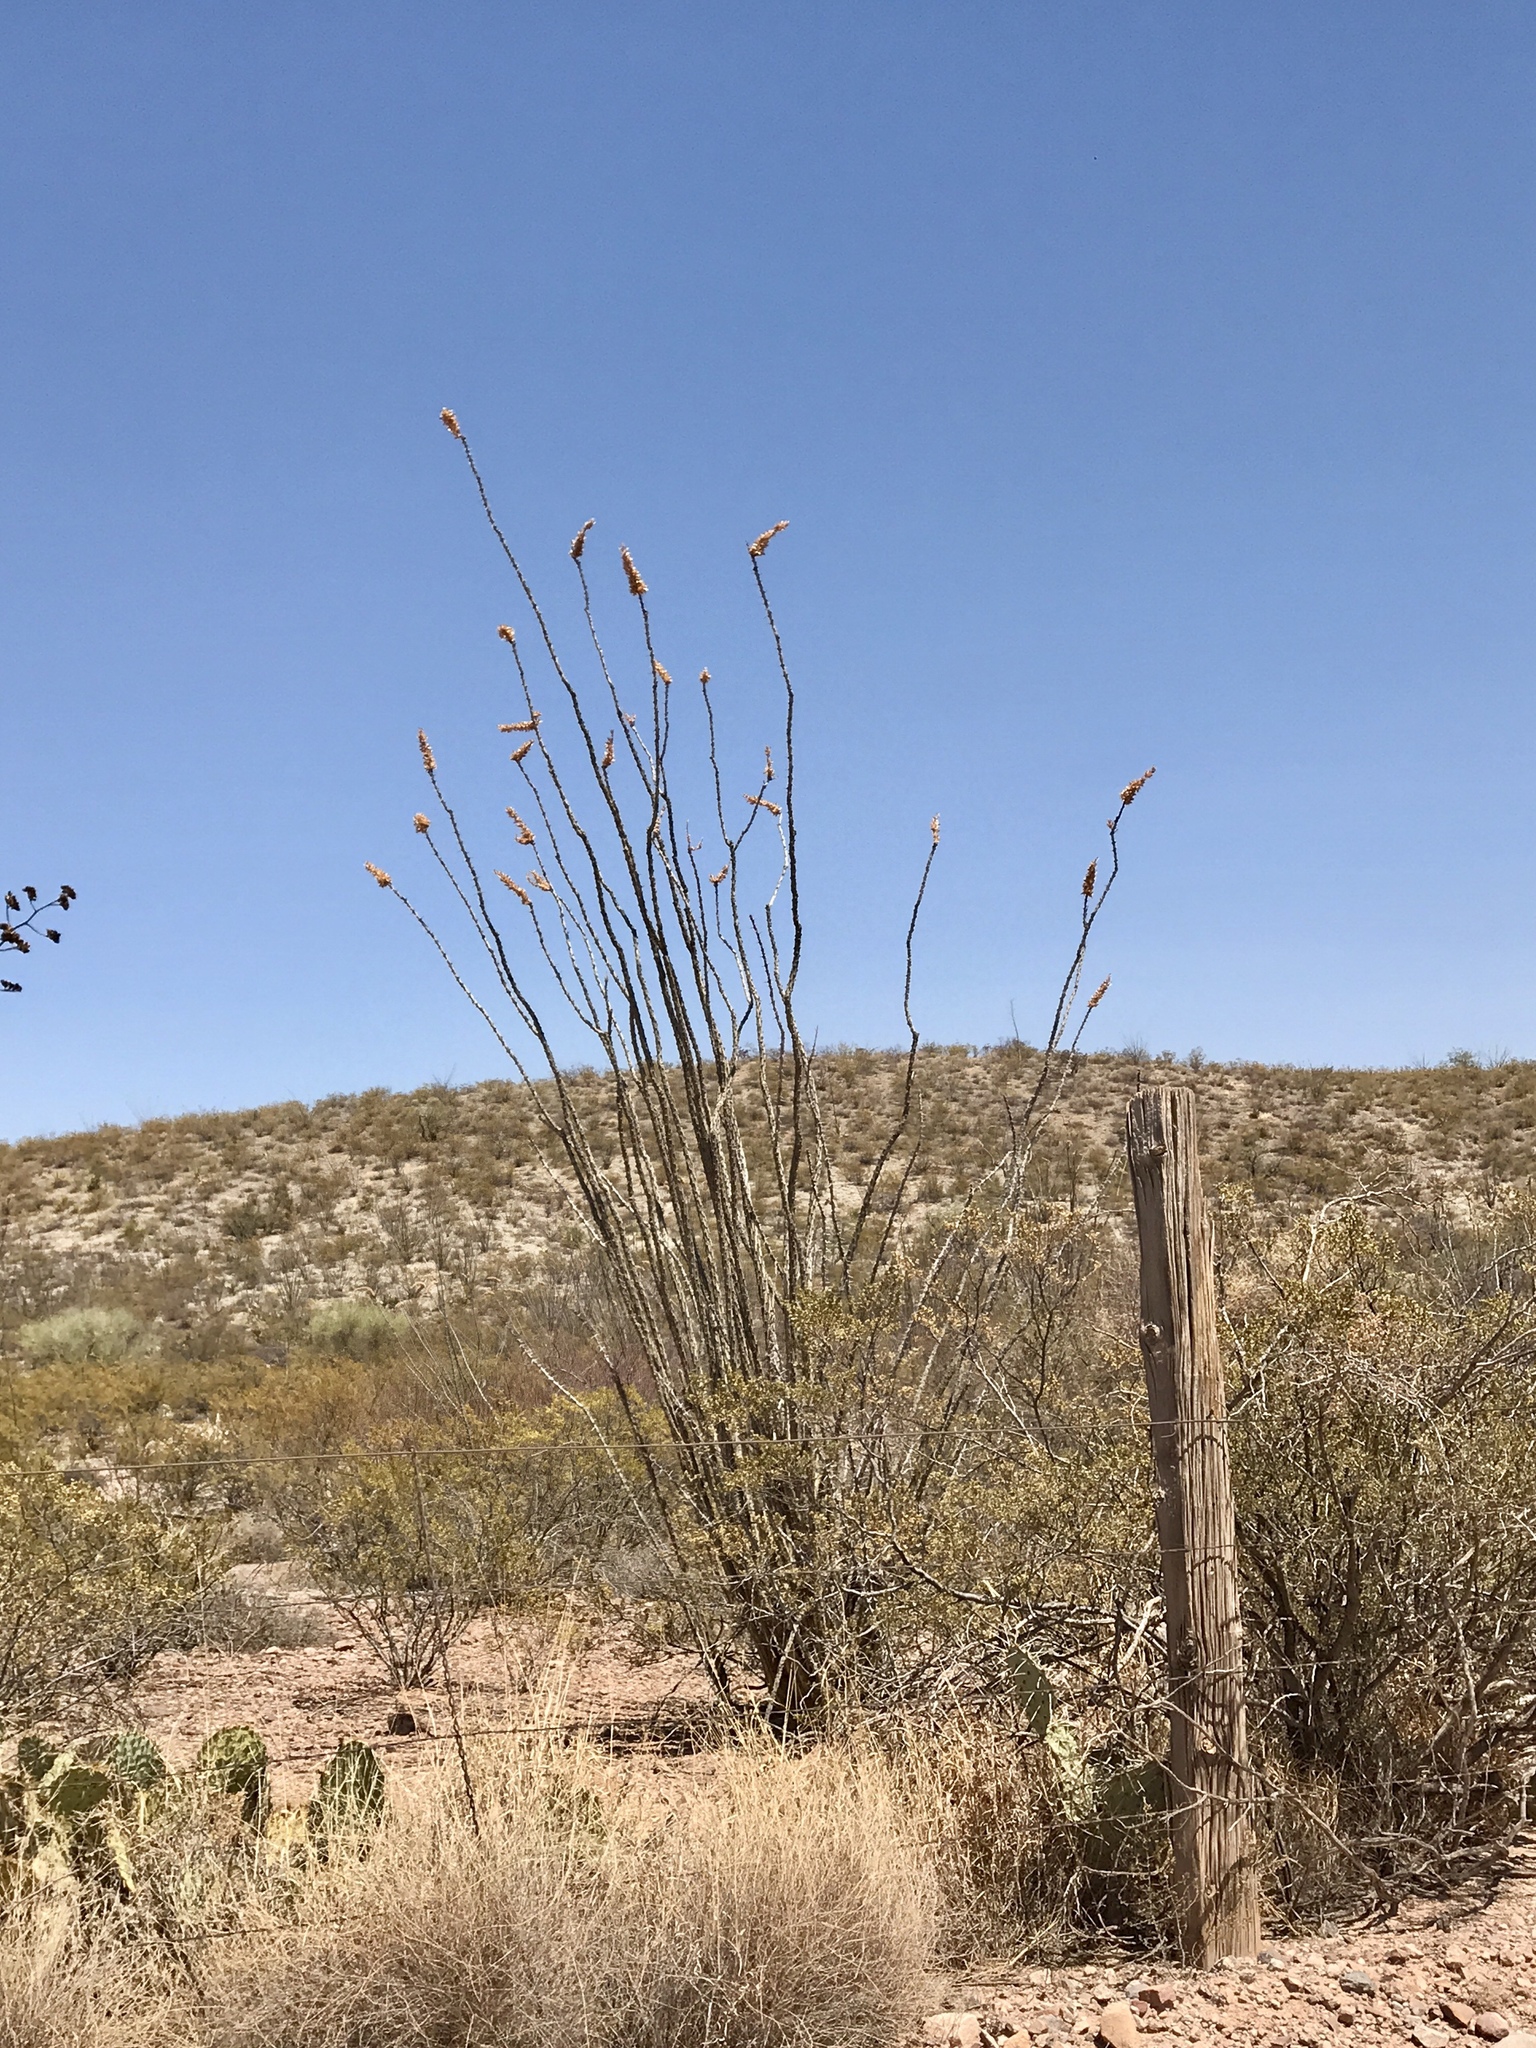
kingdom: Plantae
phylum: Tracheophyta
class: Magnoliopsida
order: Ericales
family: Fouquieriaceae
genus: Fouquieria
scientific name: Fouquieria splendens
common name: Vine-cactus
